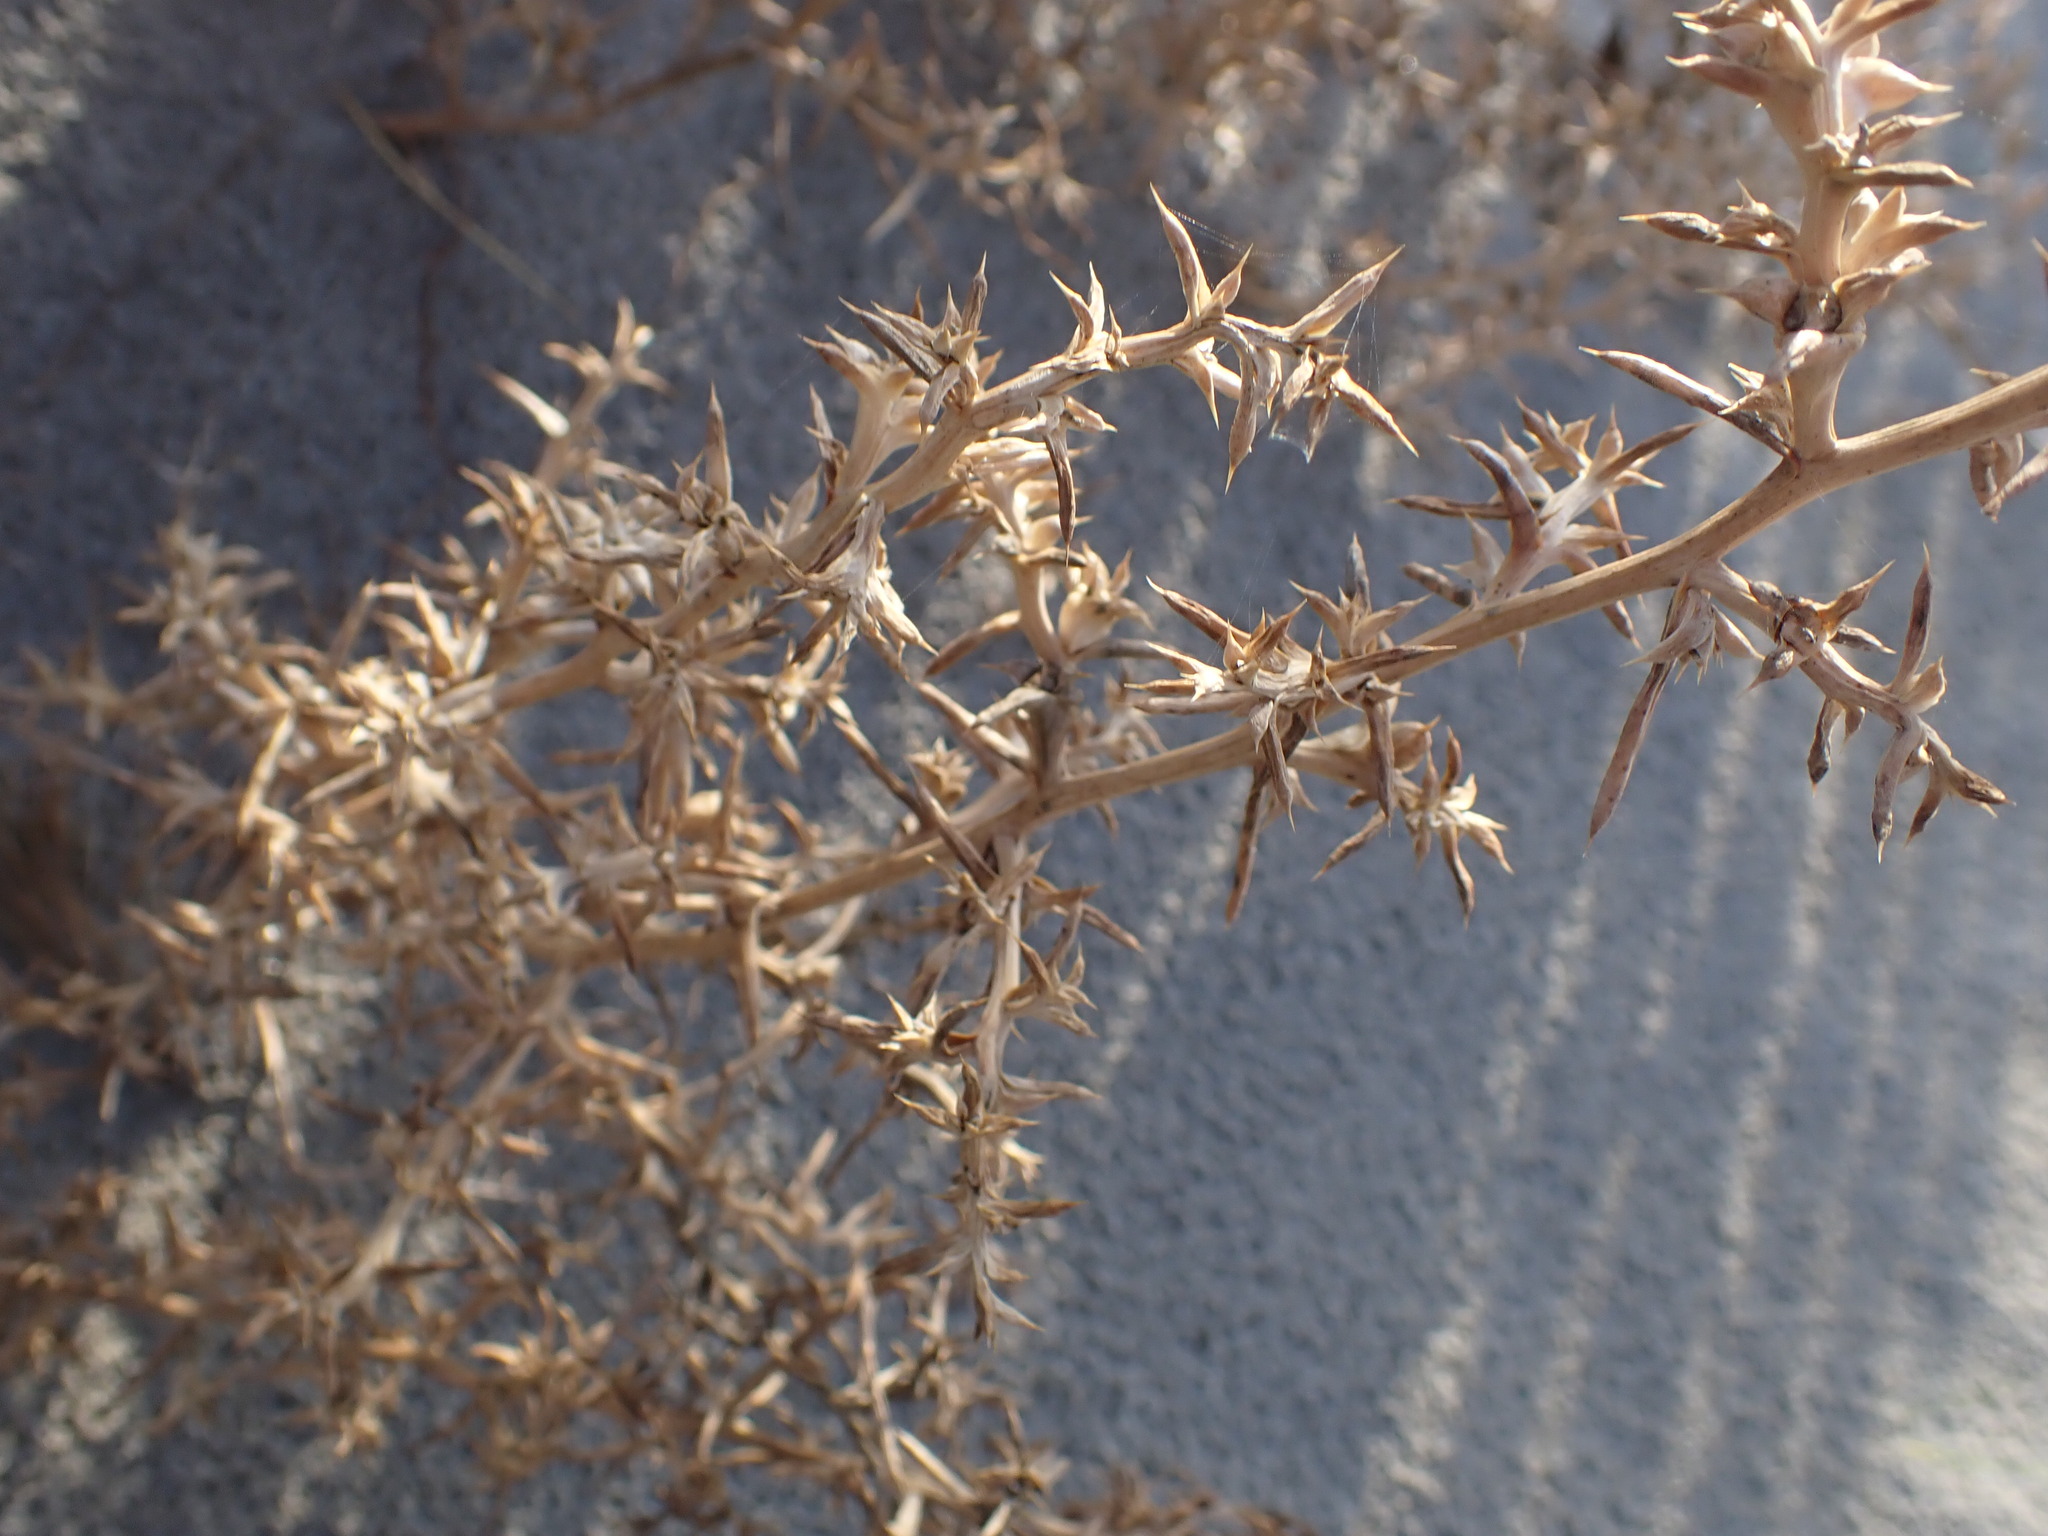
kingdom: Plantae
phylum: Tracheophyta
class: Magnoliopsida
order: Caryophyllales
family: Amaranthaceae
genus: Salsola
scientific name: Salsola kali
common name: Saltwort
